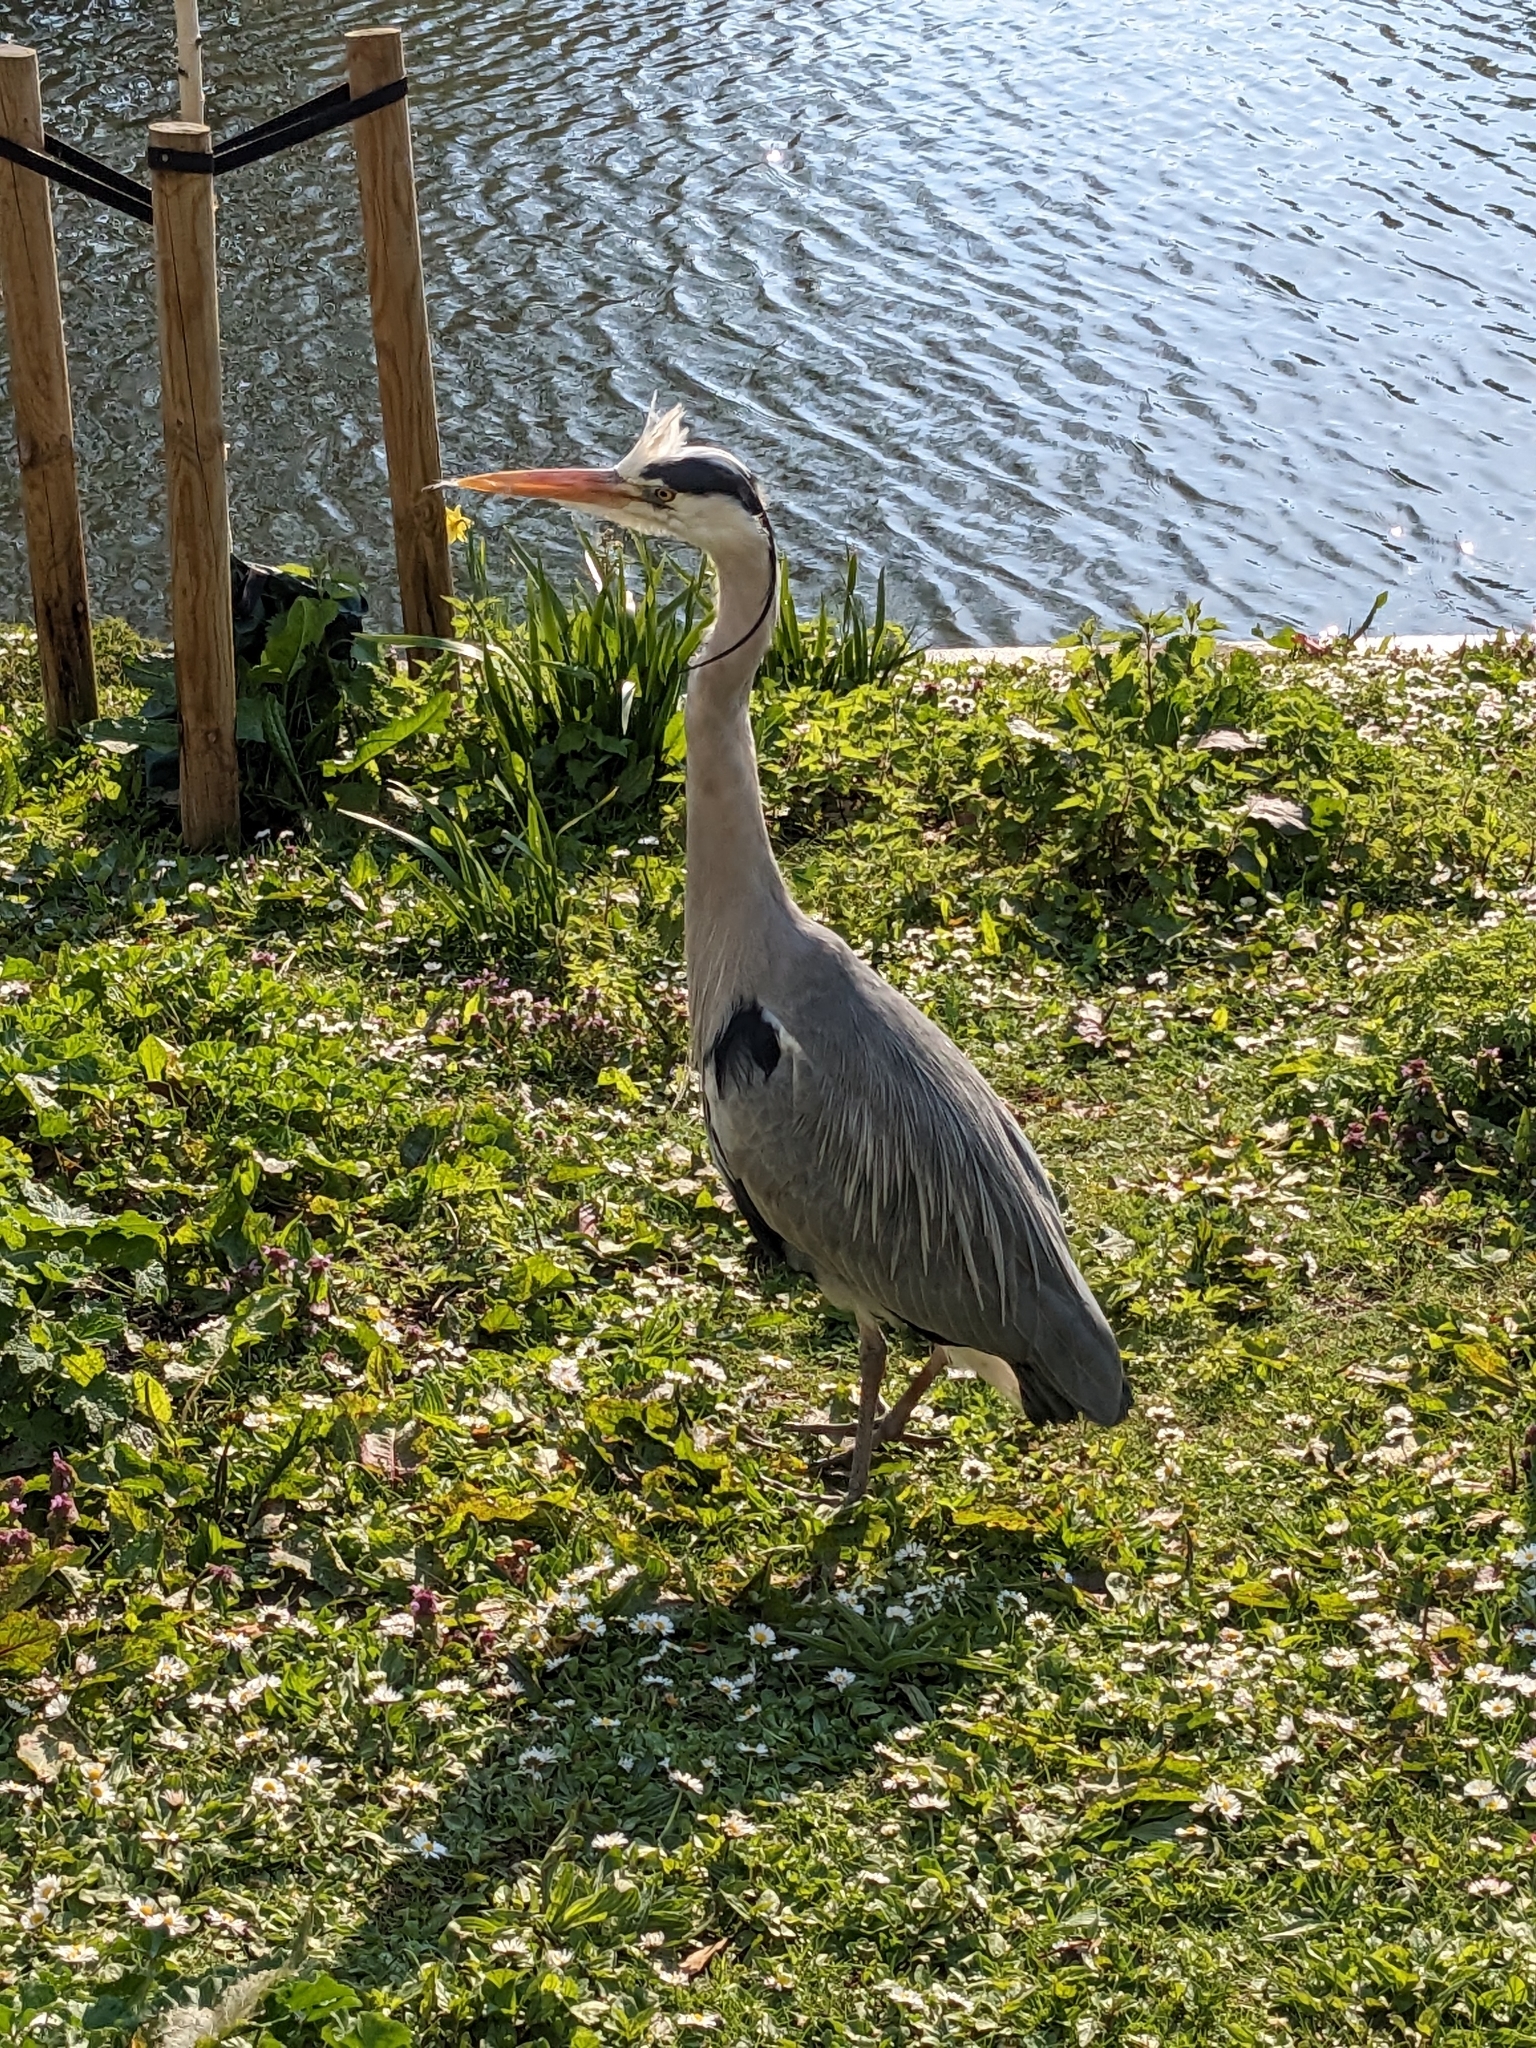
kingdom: Animalia
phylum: Chordata
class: Aves
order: Pelecaniformes
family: Ardeidae
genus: Ardea
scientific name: Ardea cinerea
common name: Grey heron
